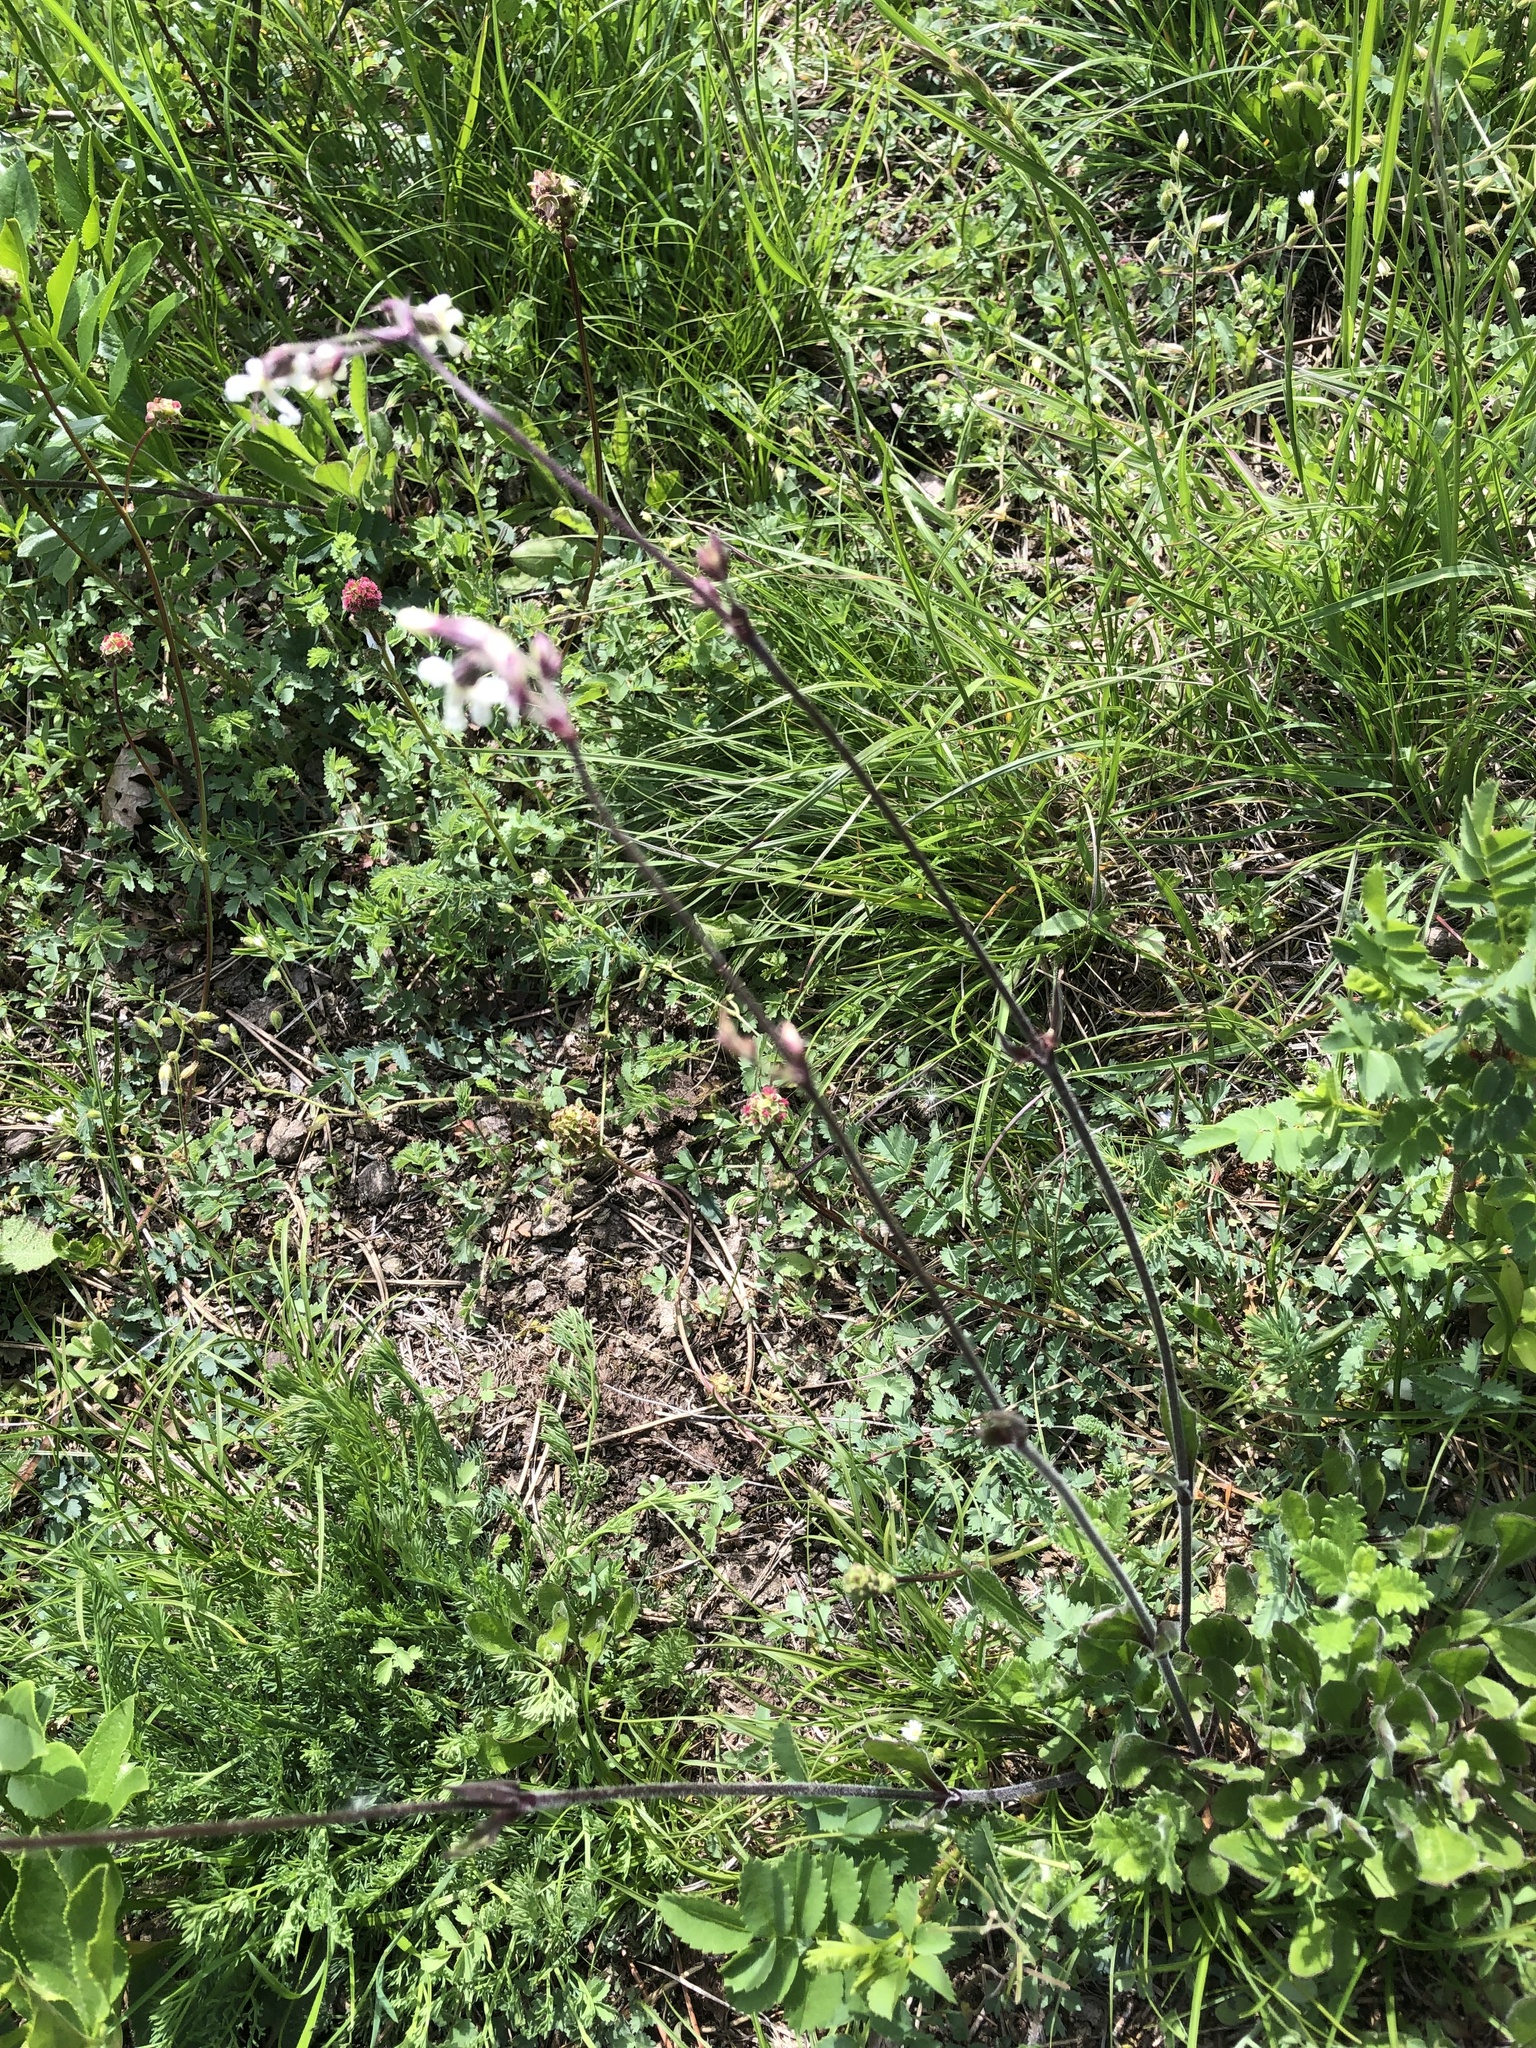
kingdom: Plantae
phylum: Tracheophyta
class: Magnoliopsida
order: Caryophyllales
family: Caryophyllaceae
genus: Silene
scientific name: Silene nutans
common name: Nottingham catchfly
